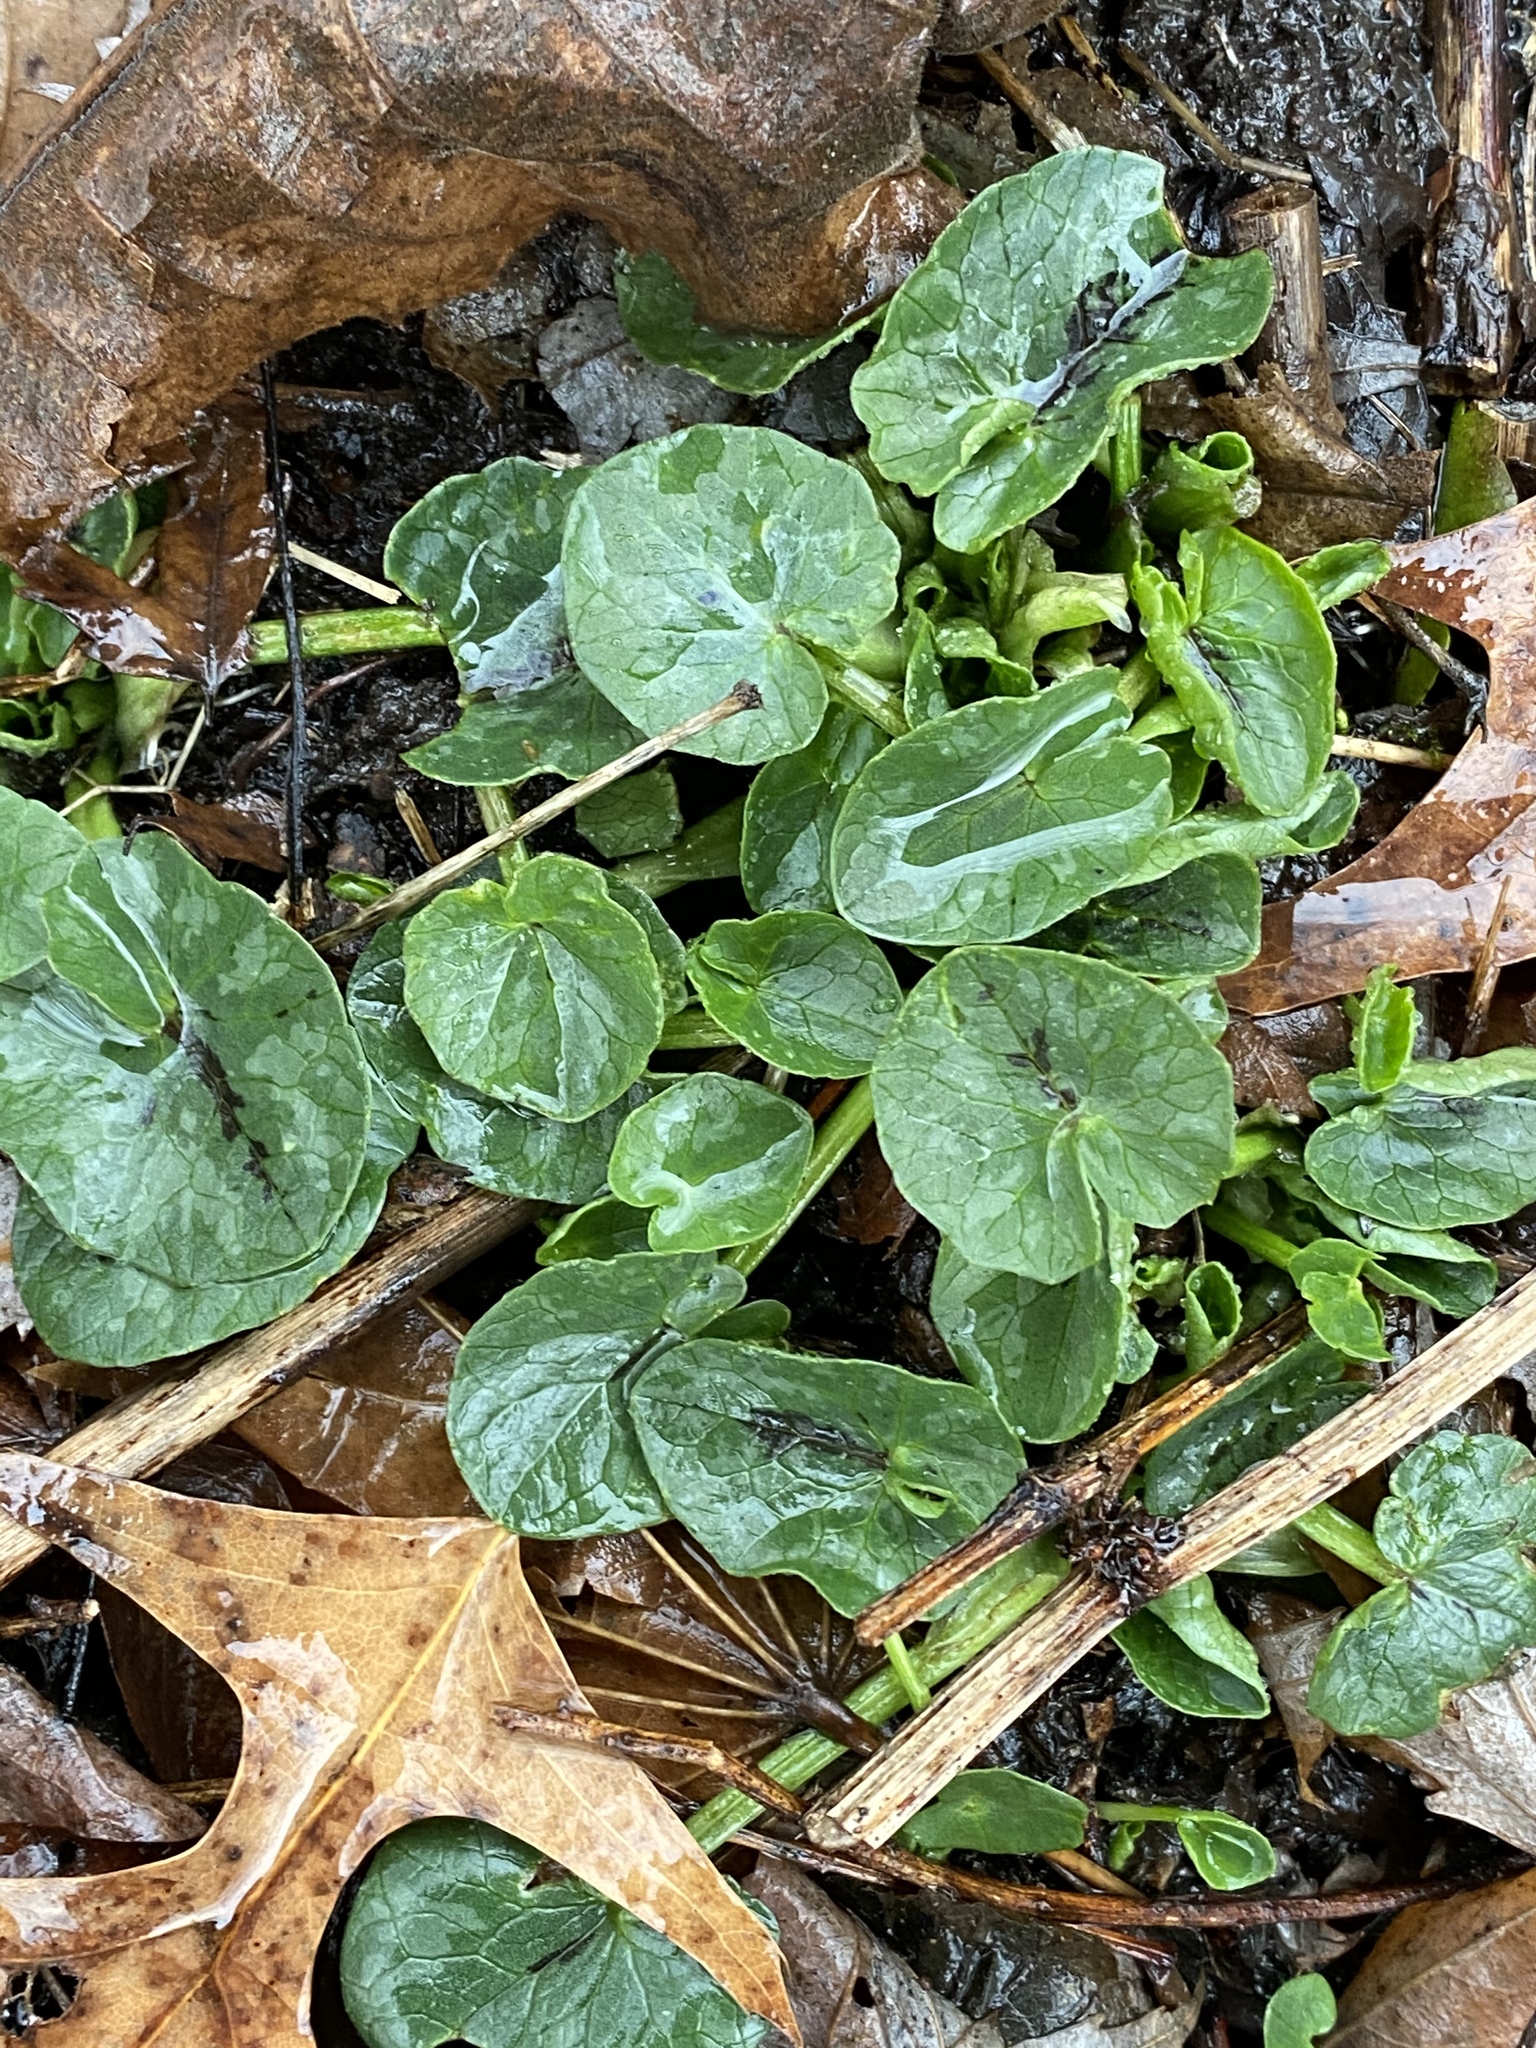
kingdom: Plantae
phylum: Tracheophyta
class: Magnoliopsida
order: Ranunculales
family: Ranunculaceae
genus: Ficaria
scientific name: Ficaria verna
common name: Lesser celandine
